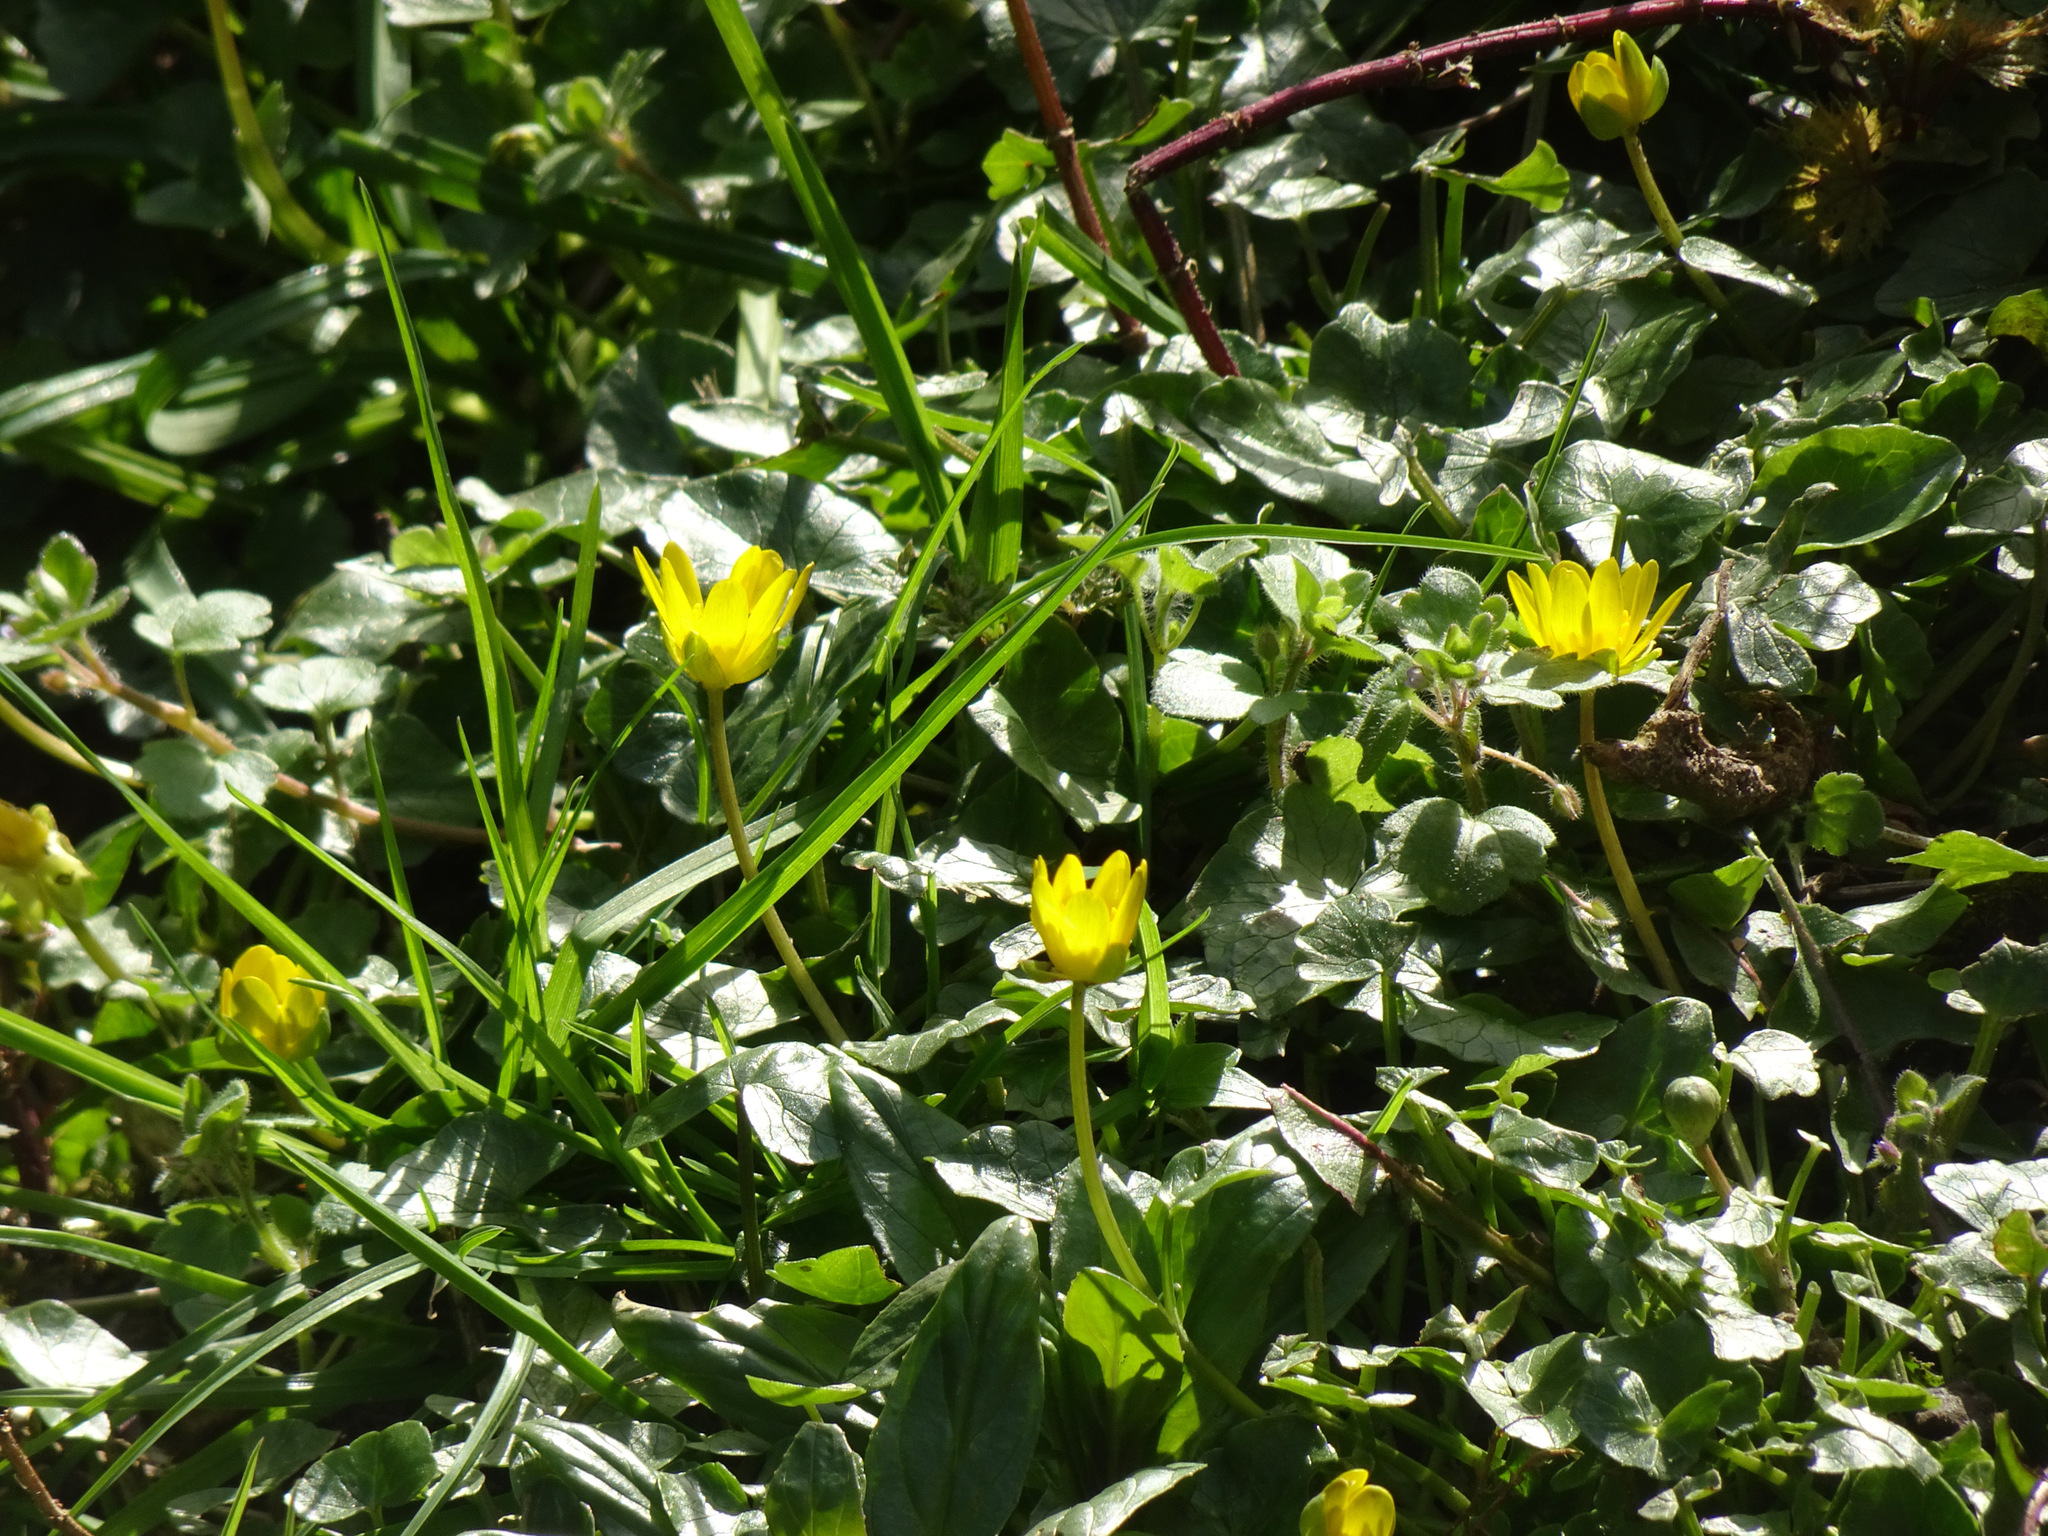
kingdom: Plantae
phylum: Tracheophyta
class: Magnoliopsida
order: Ranunculales
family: Ranunculaceae
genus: Ficaria
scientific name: Ficaria verna
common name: Lesser celandine
